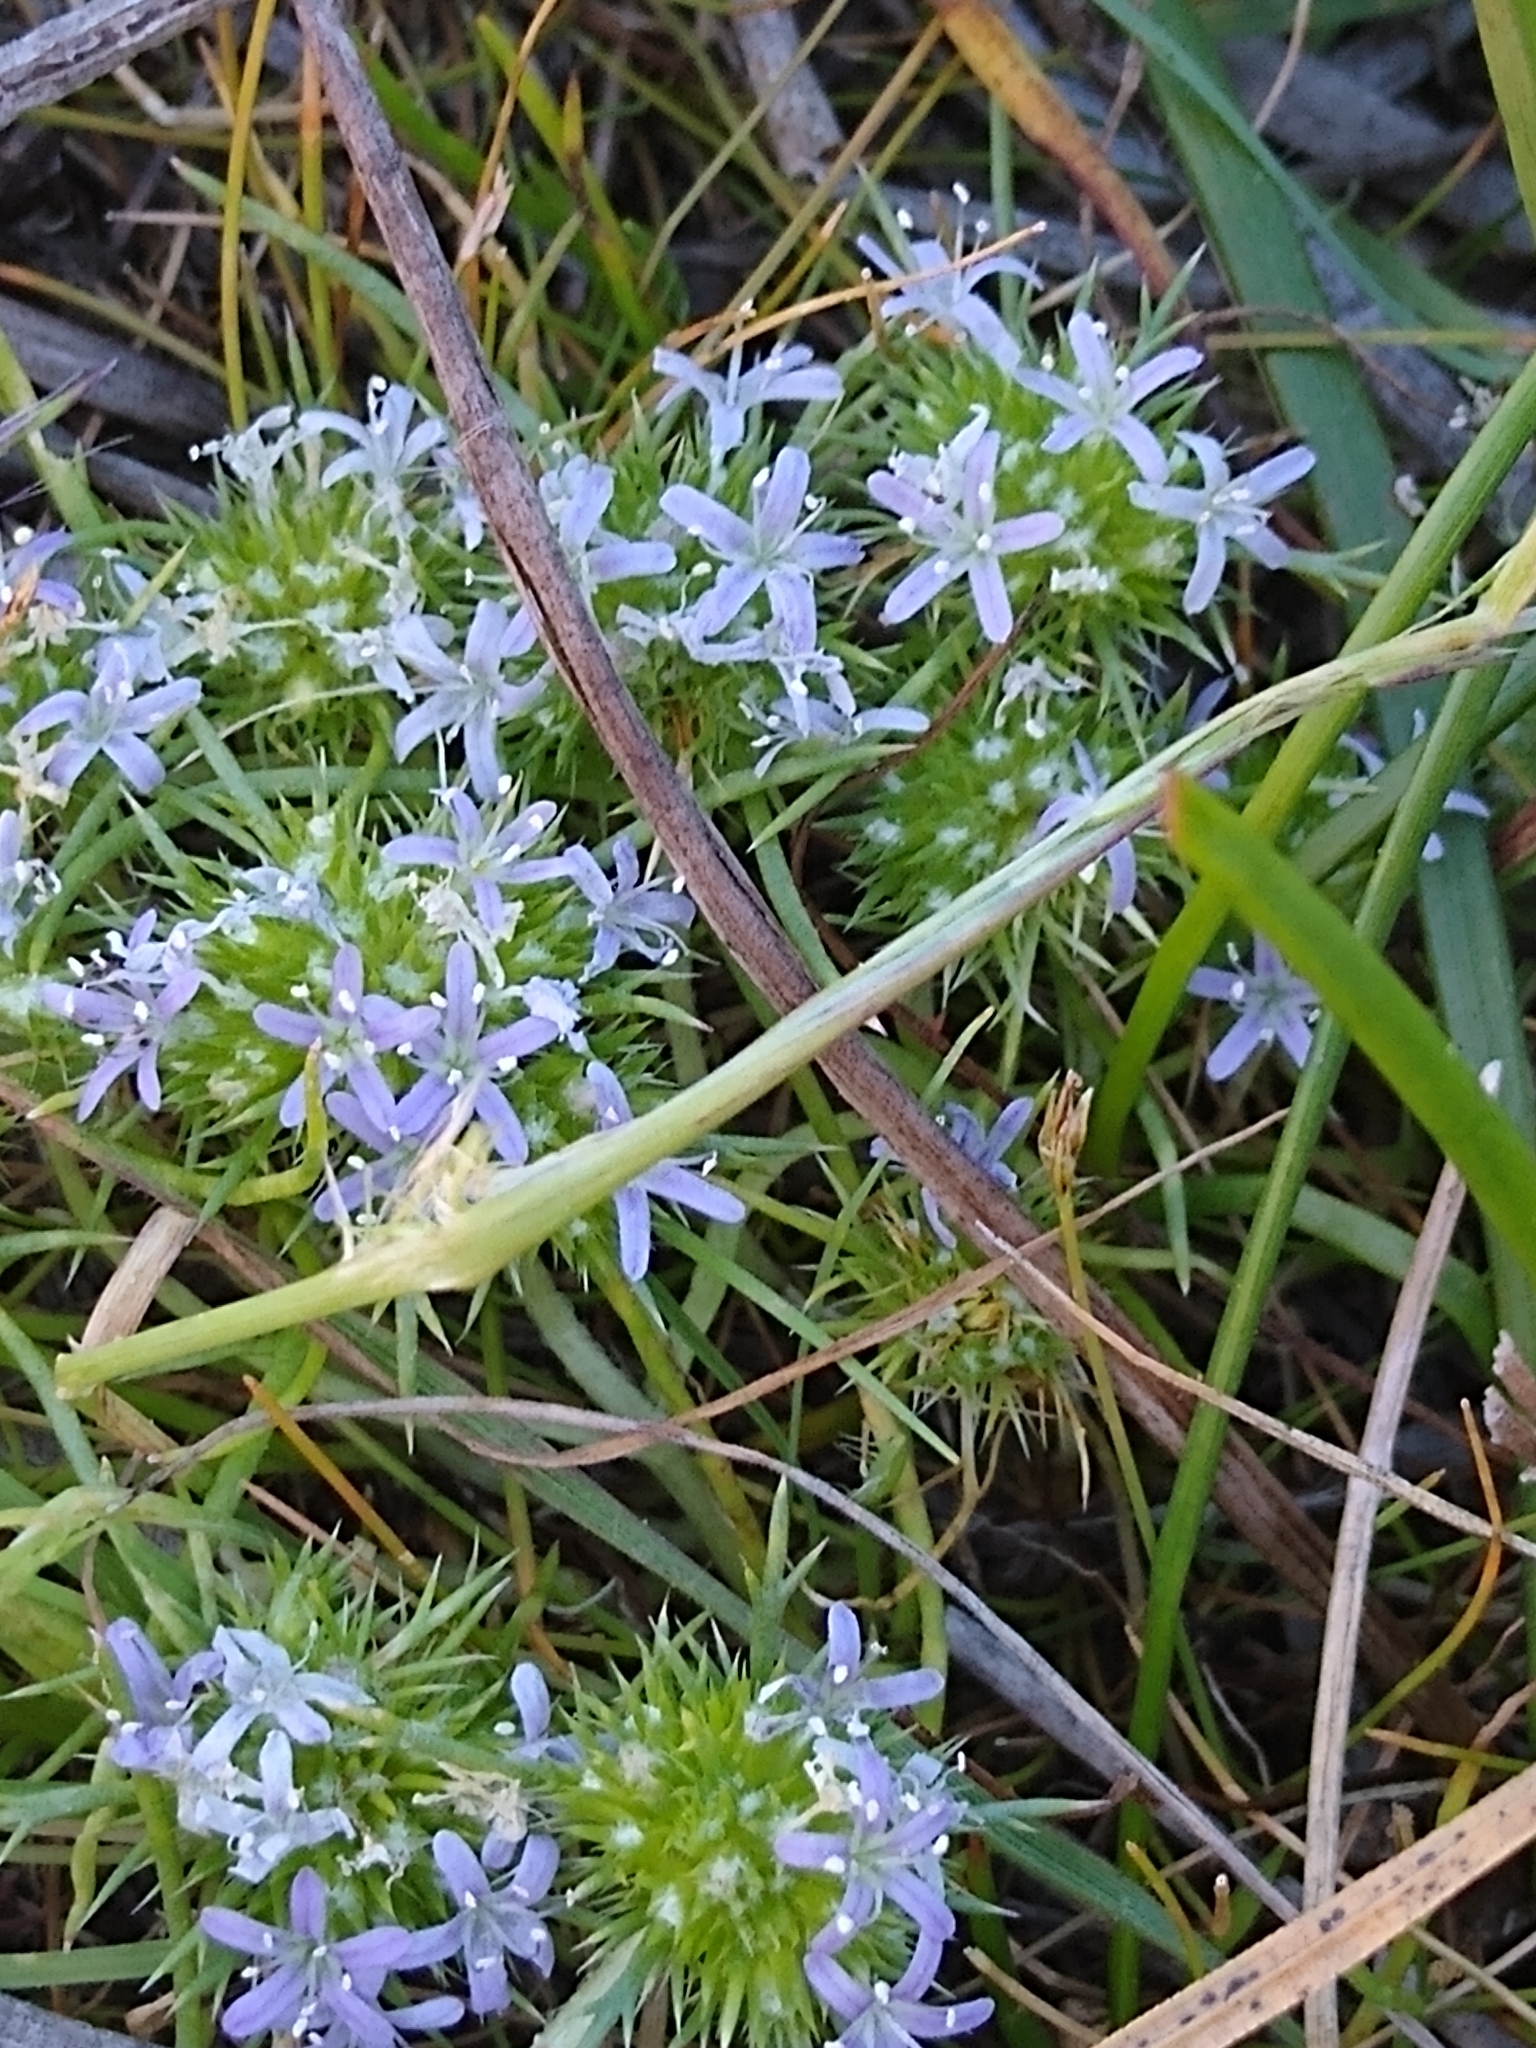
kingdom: Plantae
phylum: Tracheophyta
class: Magnoliopsida
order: Ericales
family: Polemoniaceae
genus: Navarretia
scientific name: Navarretia leucocephala
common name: White-flowered navarretia
